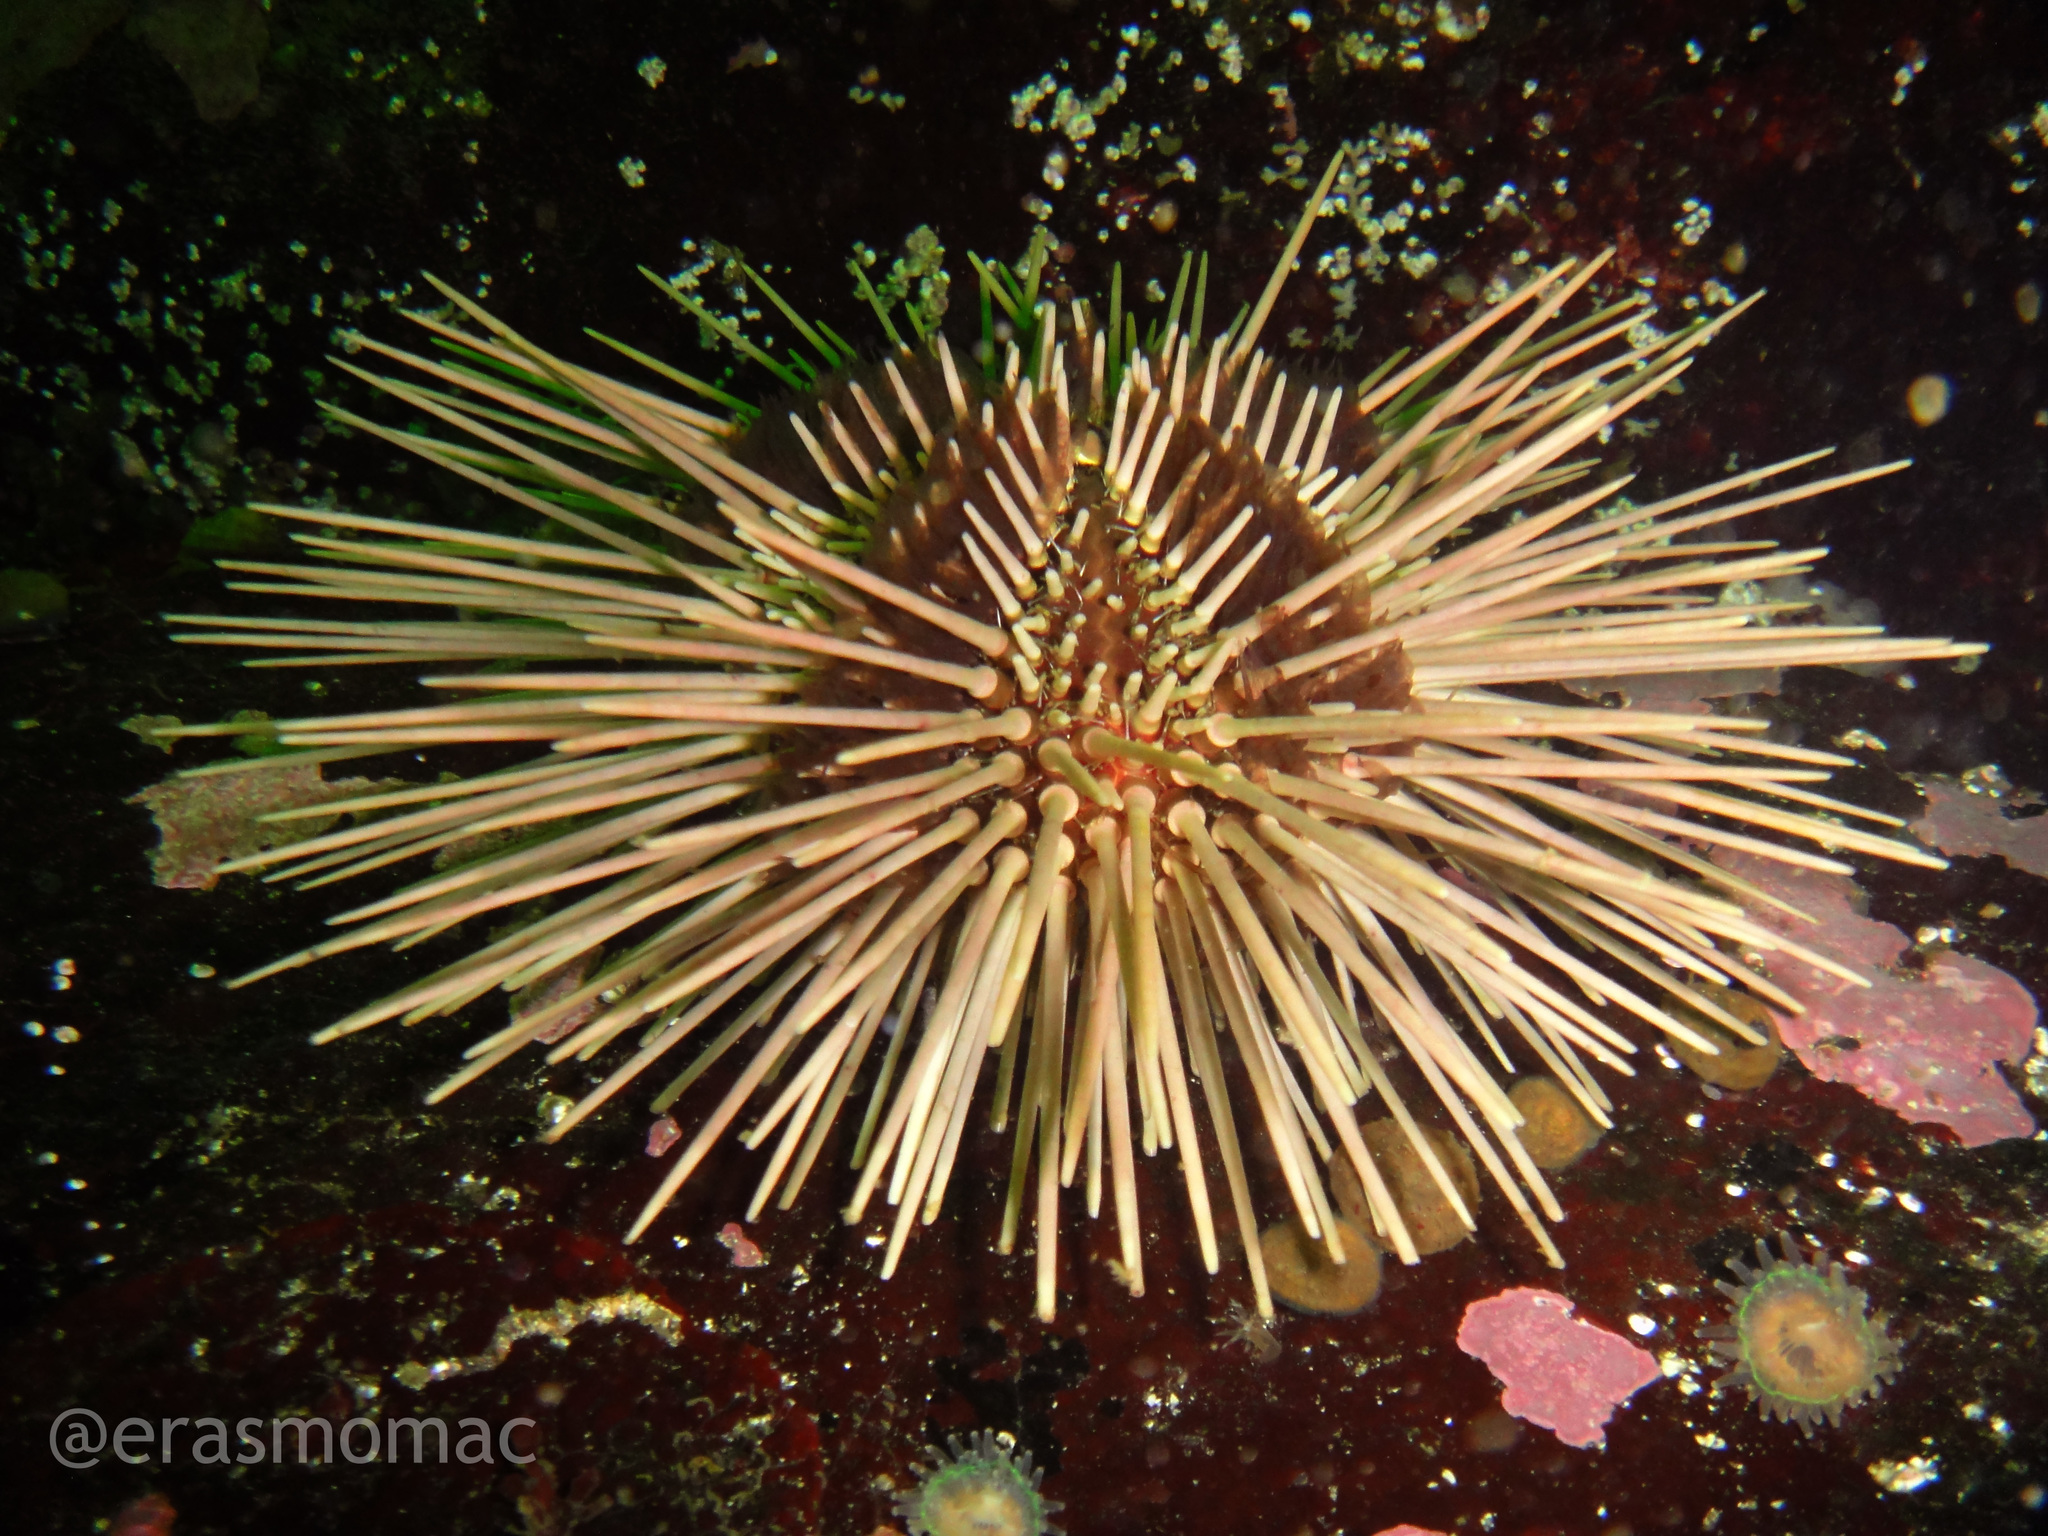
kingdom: Animalia
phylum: Echinodermata
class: Echinoidea
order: Arbacioida
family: Arbaciidae
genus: Arbacia
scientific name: Arbacia spatuligera
